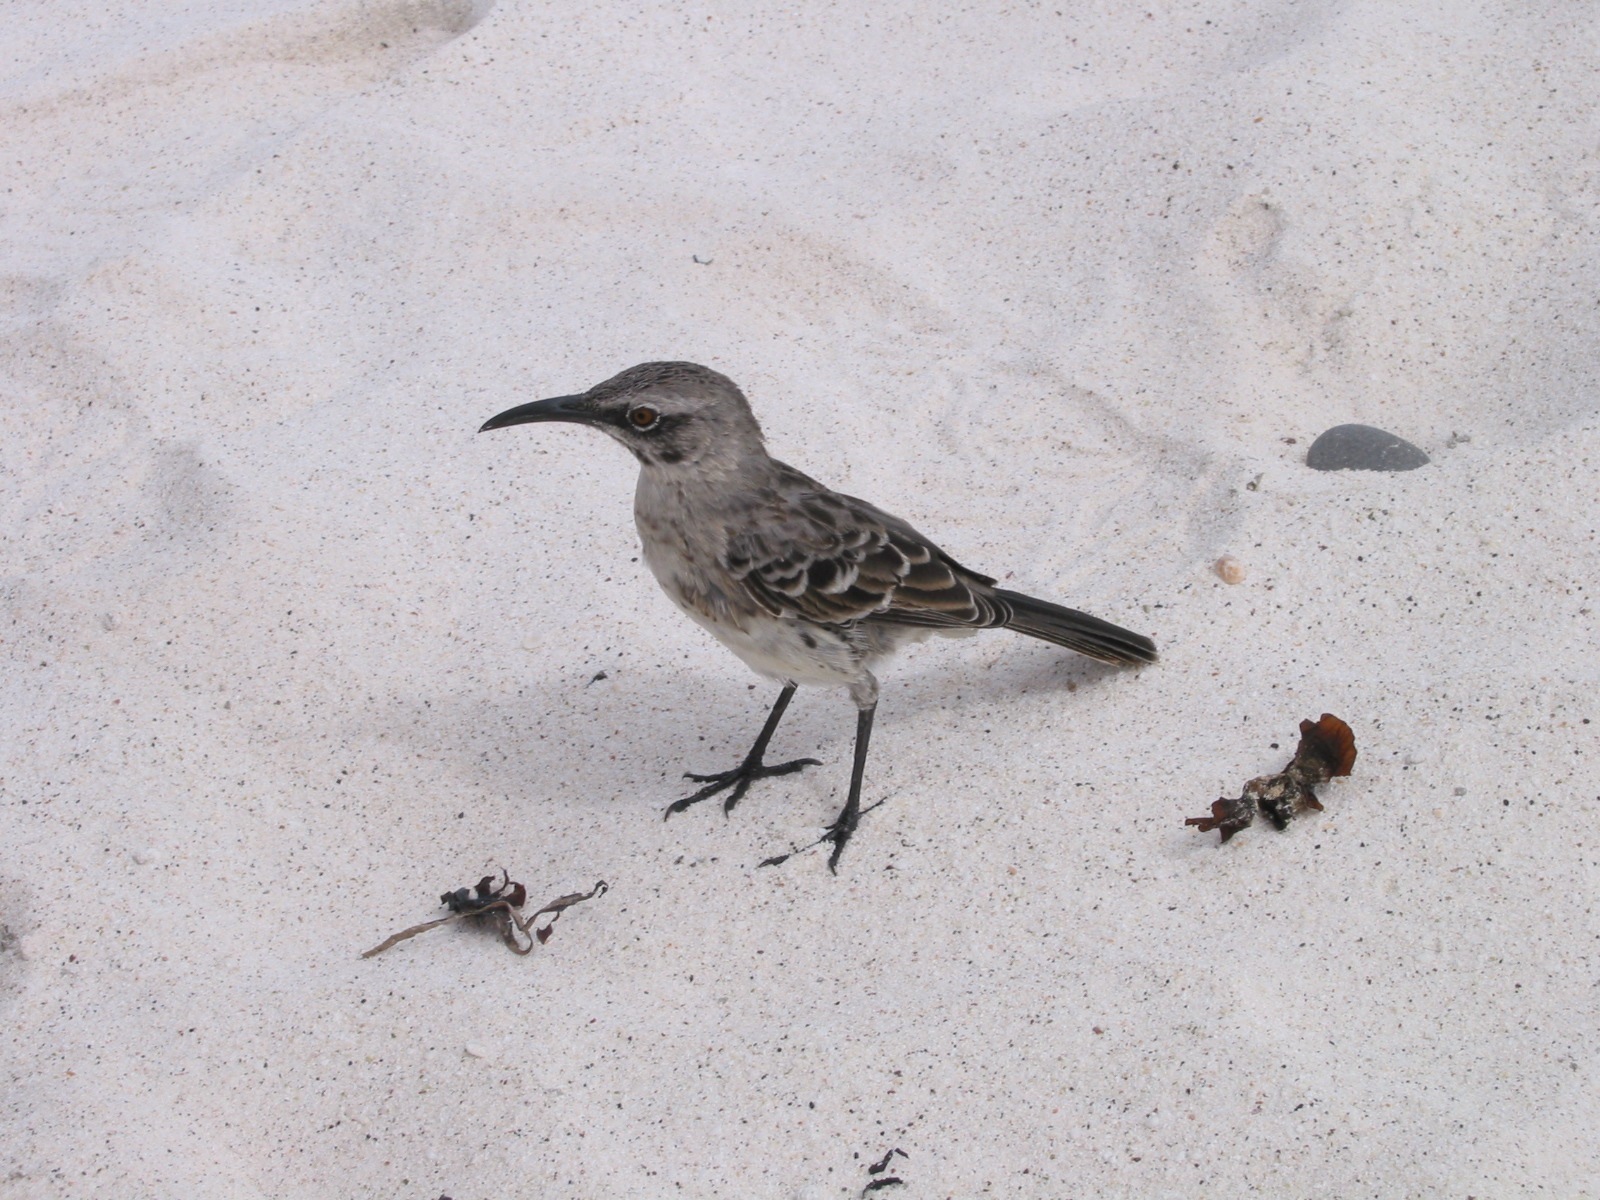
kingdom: Animalia
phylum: Chordata
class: Aves
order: Passeriformes
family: Mimidae
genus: Mimus
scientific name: Mimus macdonaldi
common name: Espanola mockingbird
